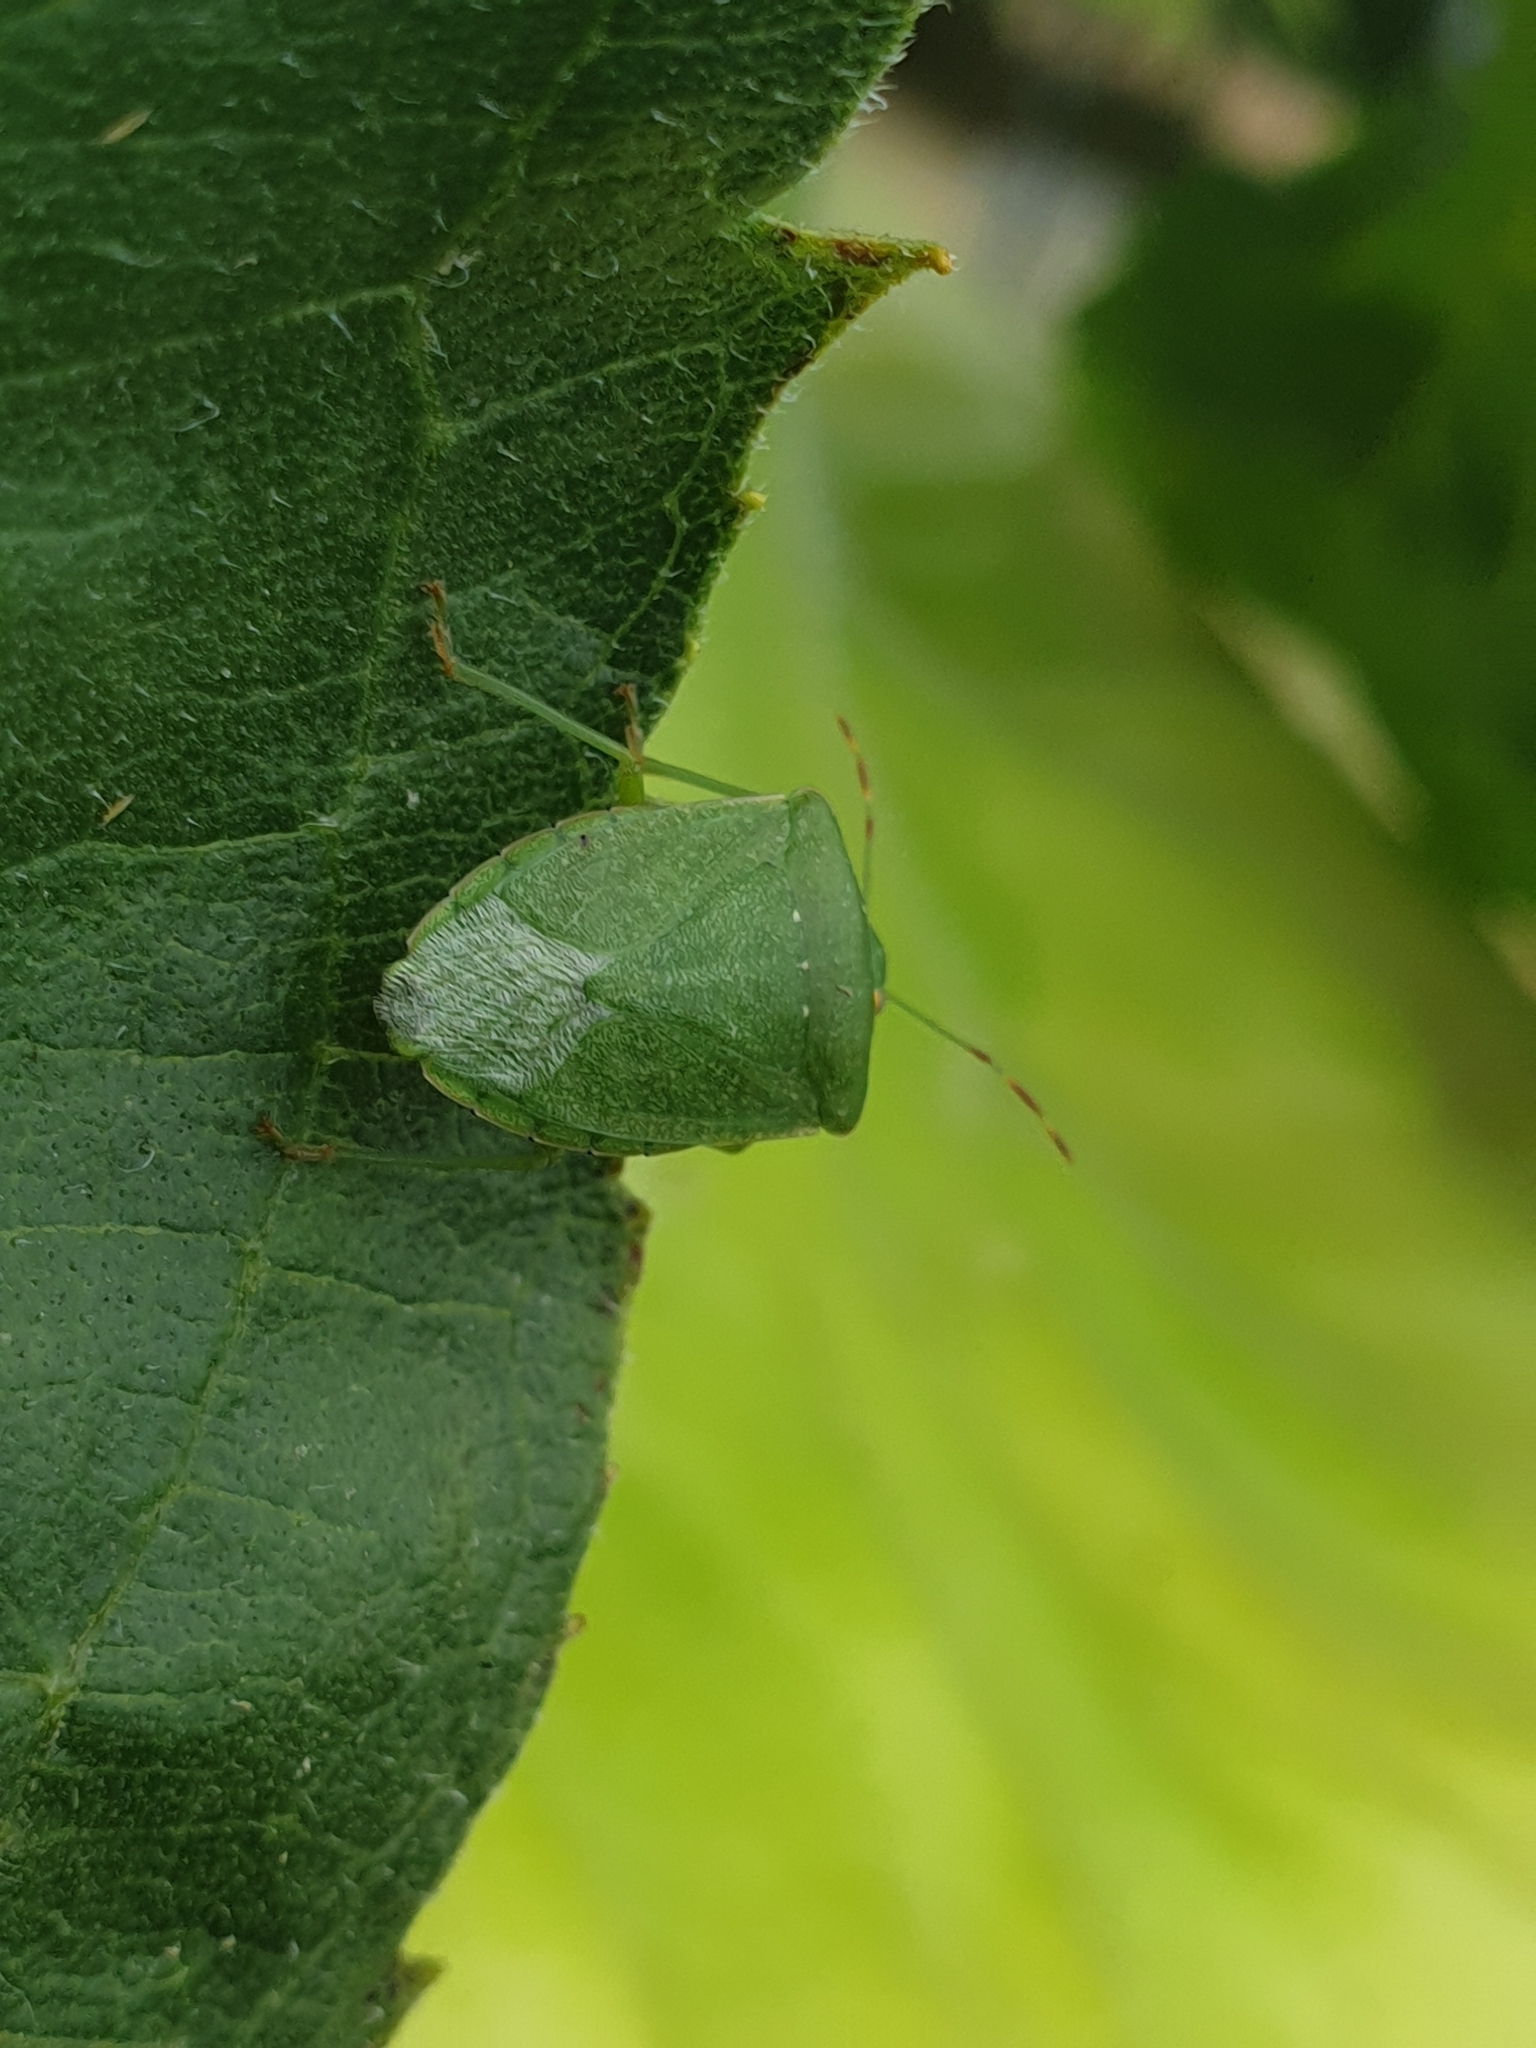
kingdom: Animalia
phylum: Arthropoda
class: Insecta
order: Hemiptera
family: Pentatomidae
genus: Nezara
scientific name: Nezara viridula
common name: Southern green stink bug
